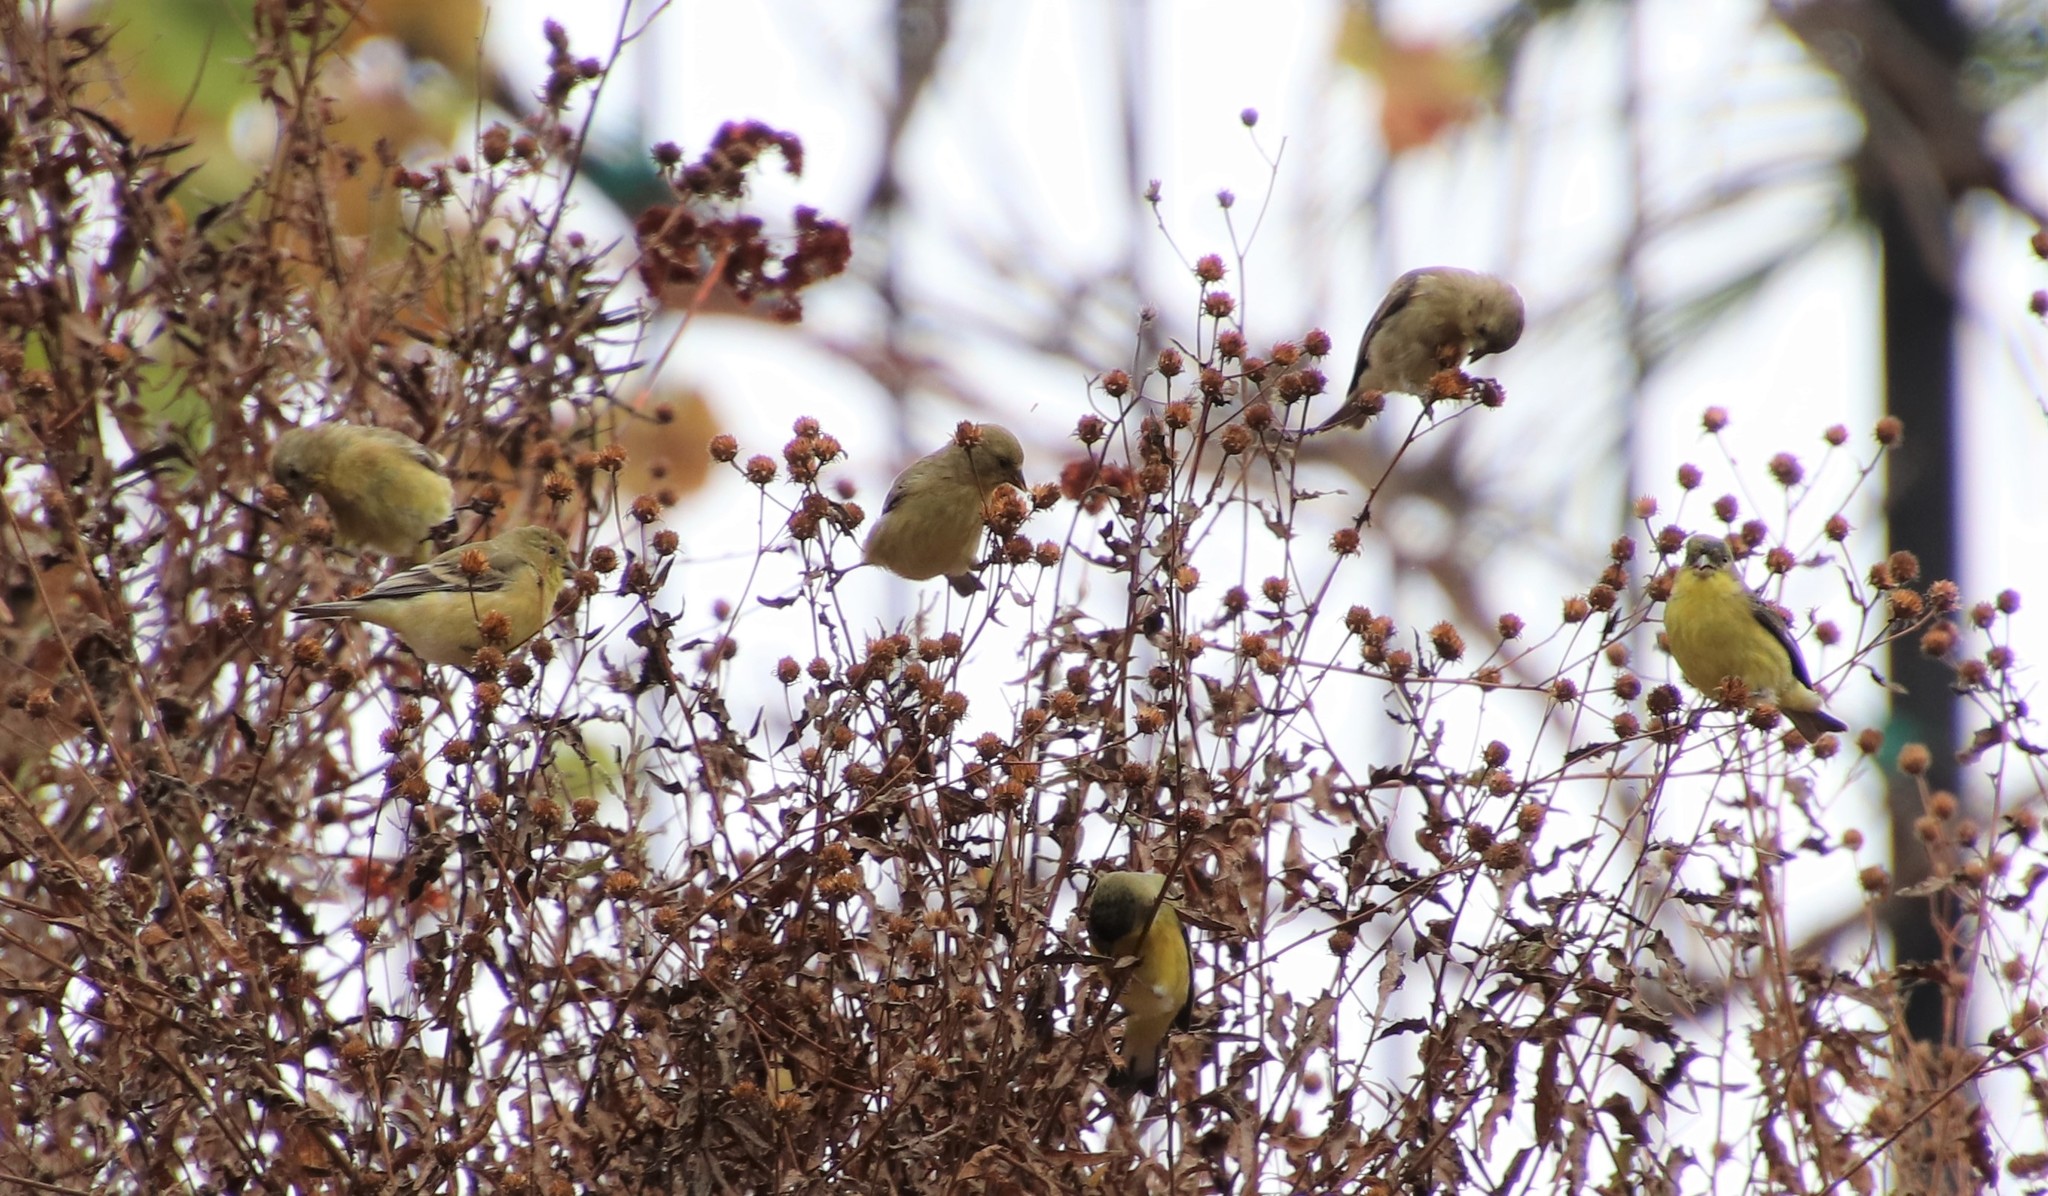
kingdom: Animalia
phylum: Chordata
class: Aves
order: Passeriformes
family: Fringillidae
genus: Spinus
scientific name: Spinus psaltria
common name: Lesser goldfinch
